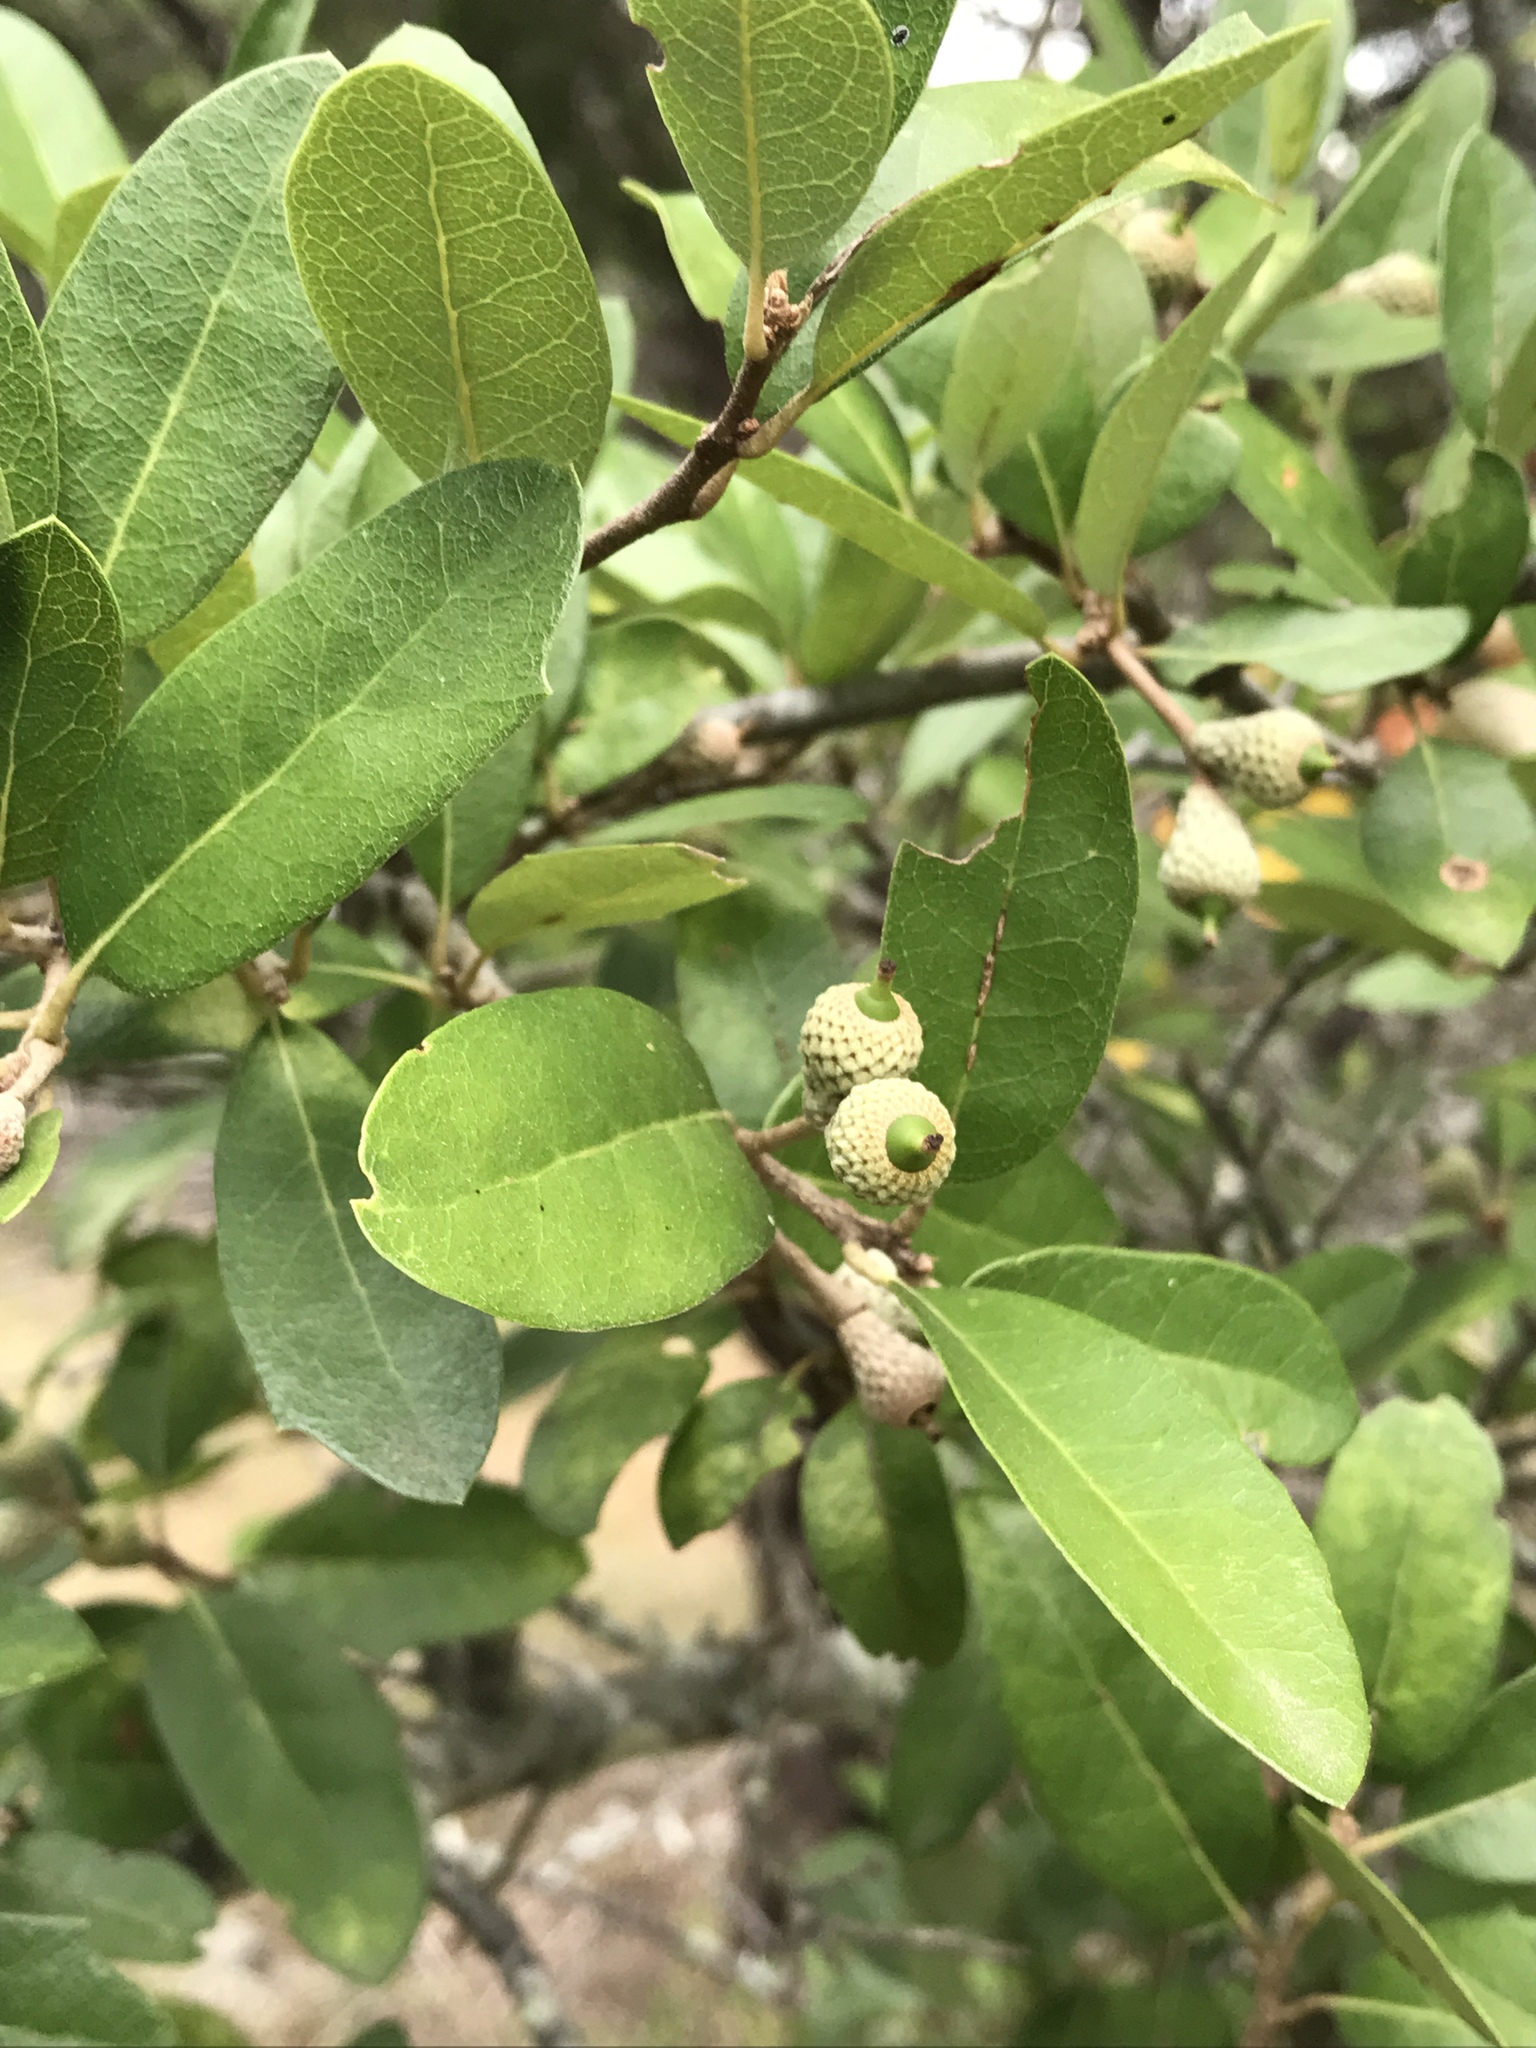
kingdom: Plantae
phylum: Tracheophyta
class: Magnoliopsida
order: Fagales
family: Fagaceae
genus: Quercus
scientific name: Quercus fusiformis
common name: Texas live oak
